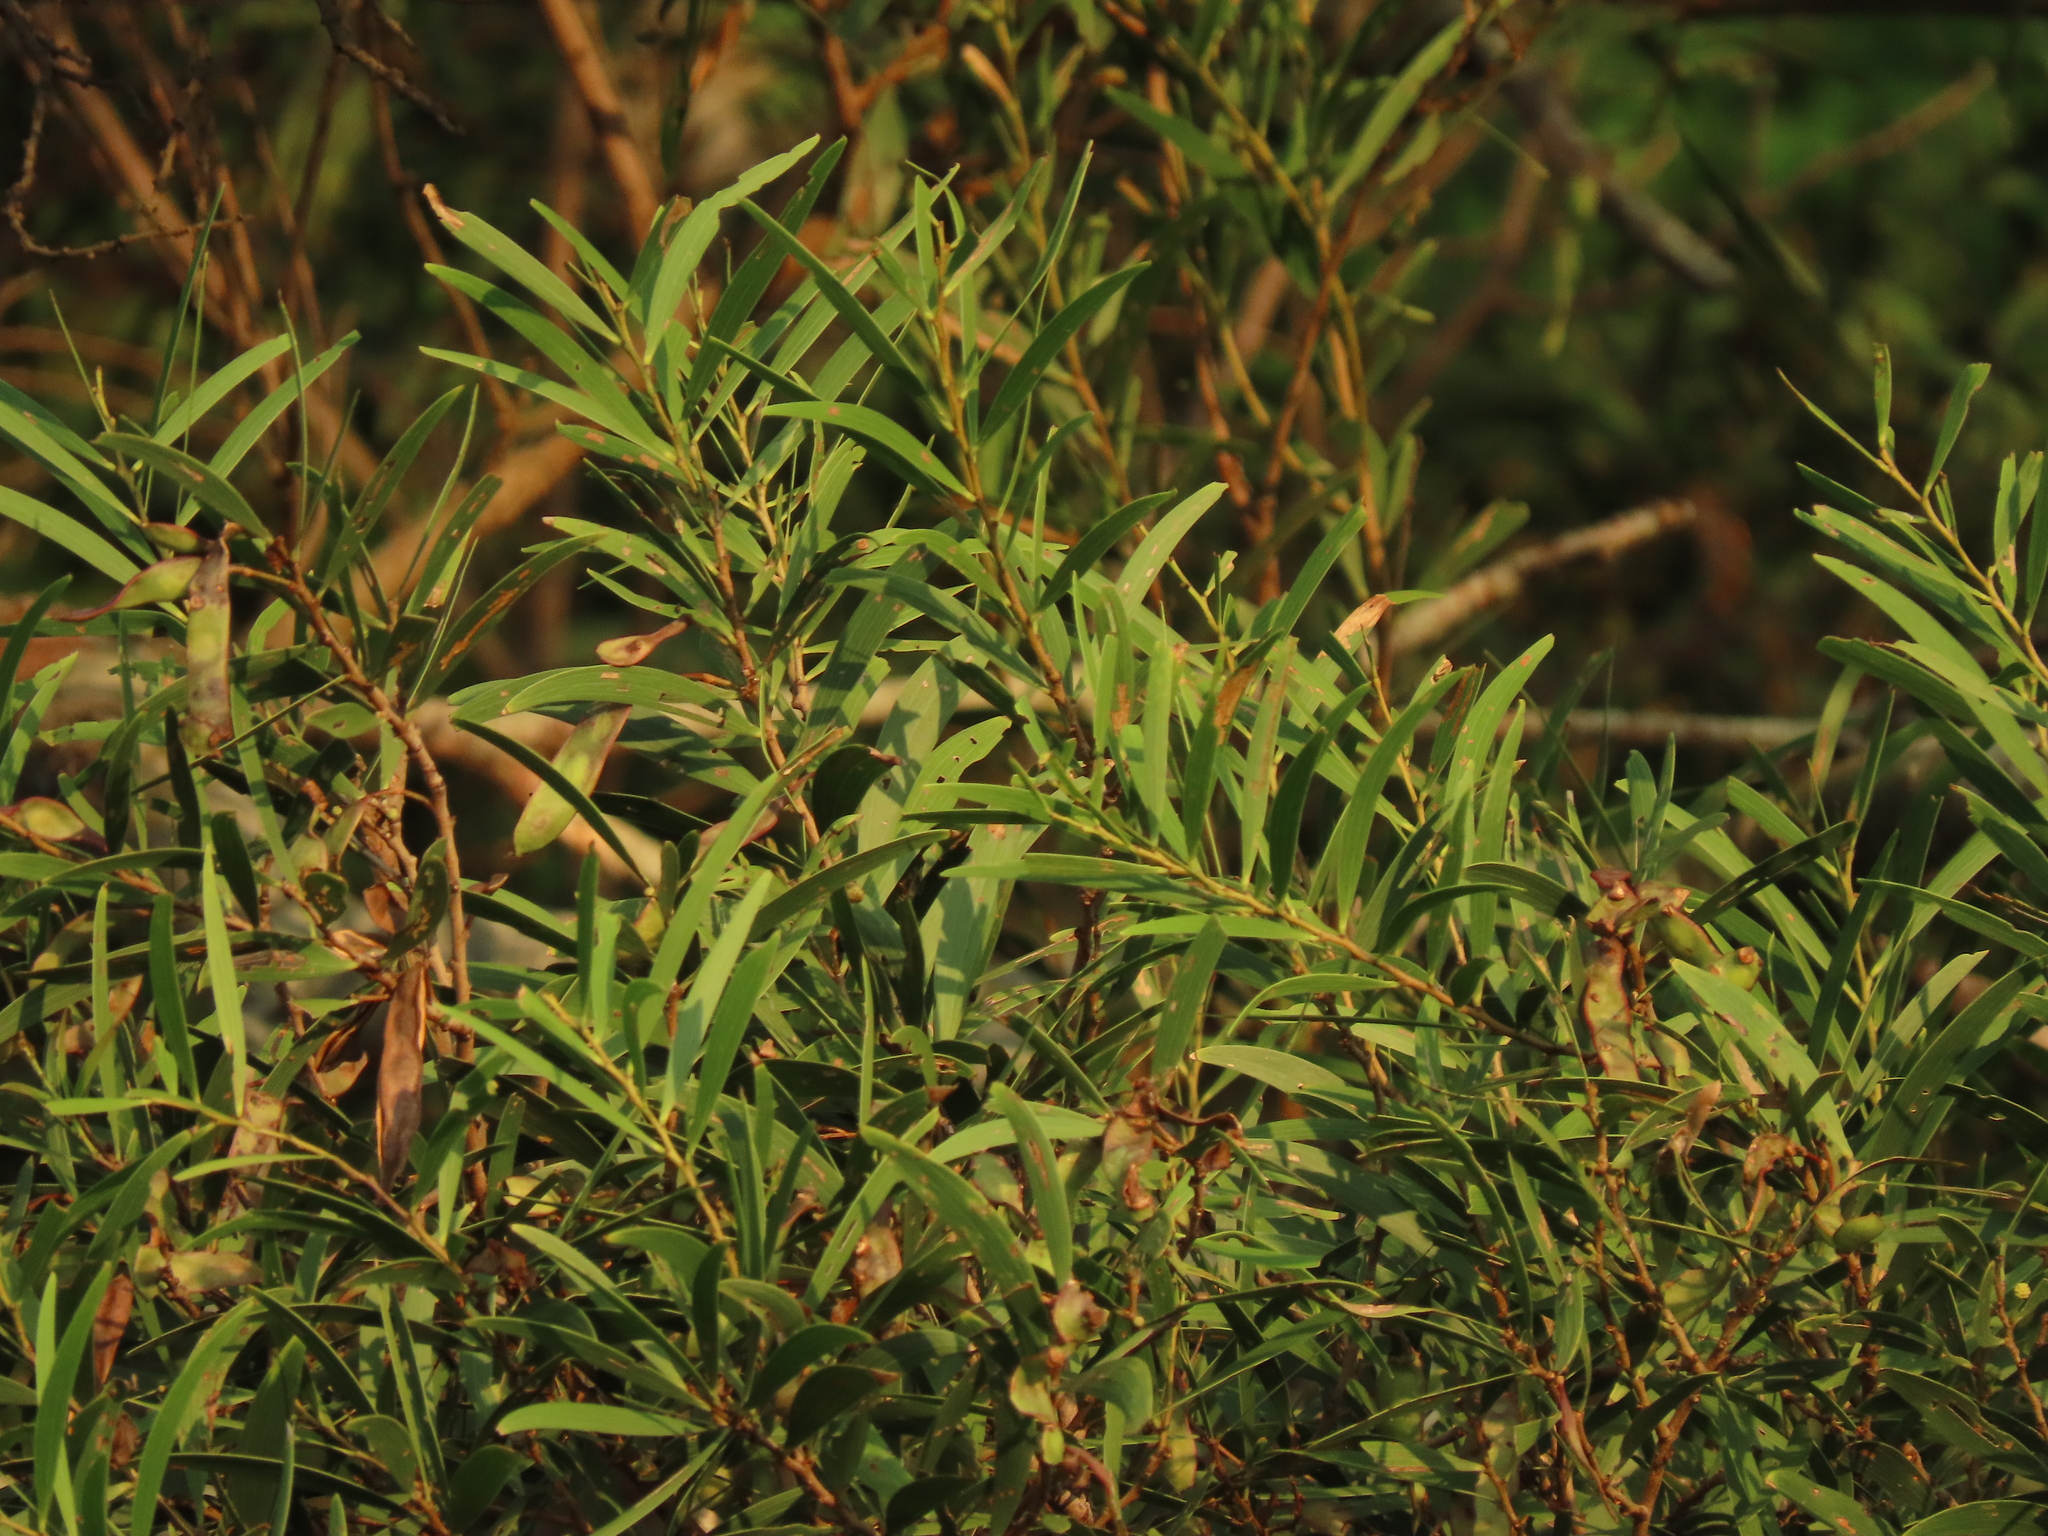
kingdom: Plantae
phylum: Tracheophyta
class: Magnoliopsida
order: Fabales
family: Fabaceae
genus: Acacia
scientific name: Acacia confusa
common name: Formosan koa
